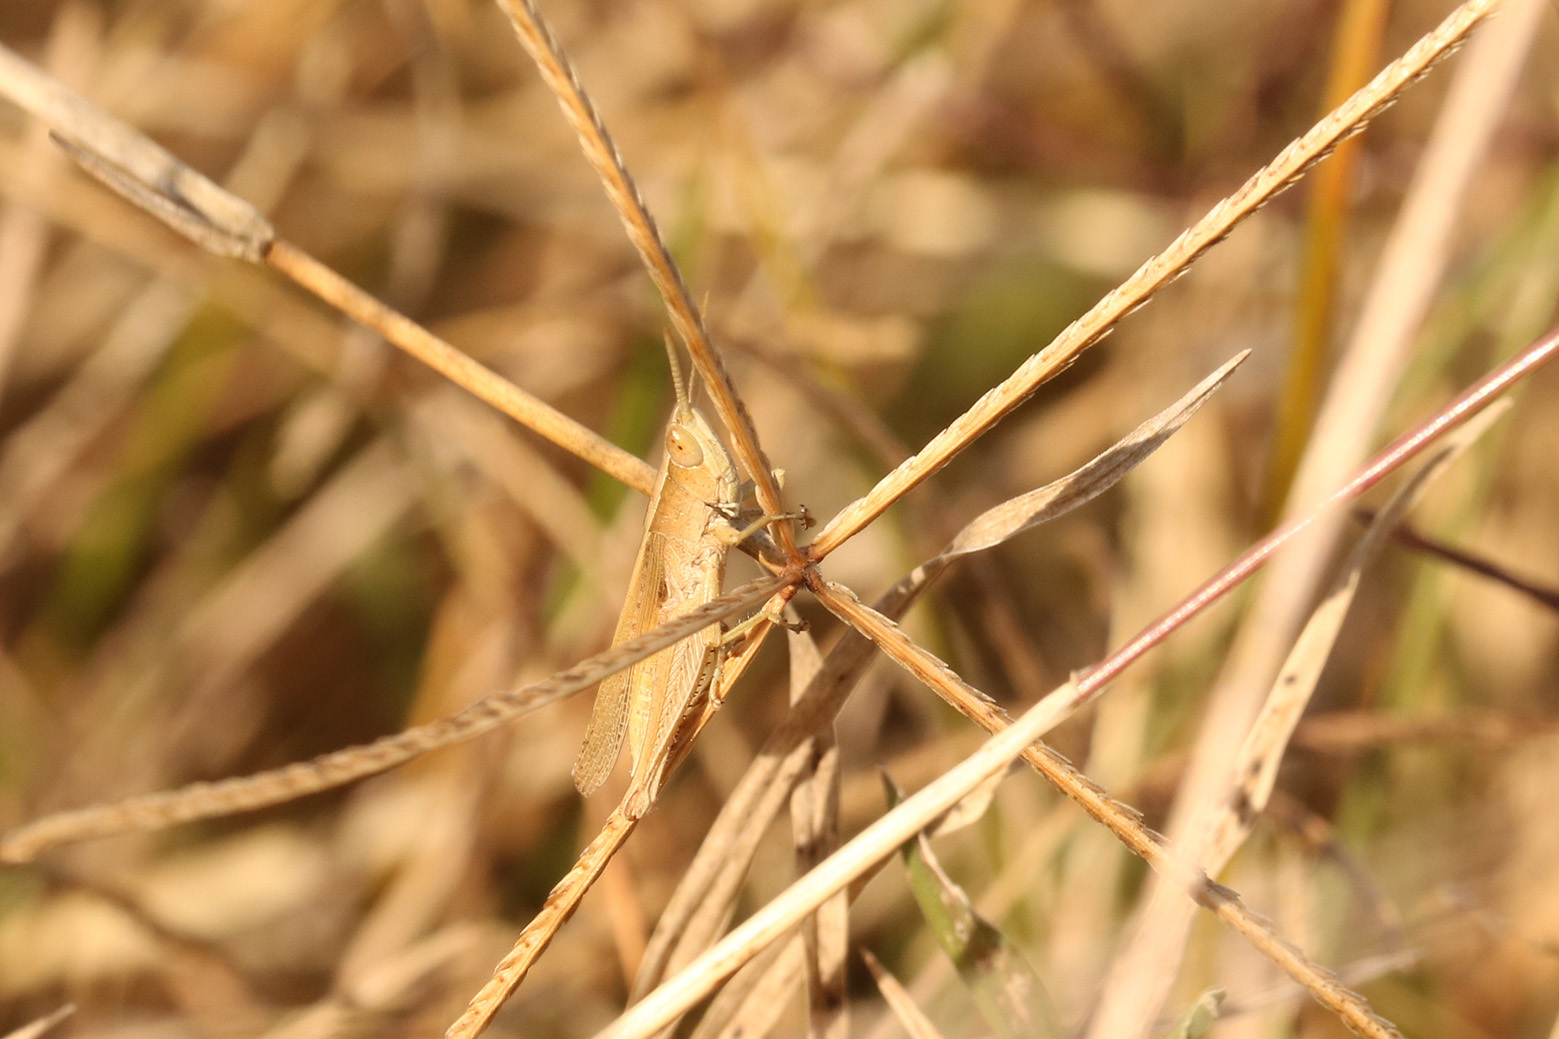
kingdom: Animalia
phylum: Arthropoda
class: Insecta
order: Orthoptera
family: Acrididae
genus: Laplatacris
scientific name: Laplatacris dispar
